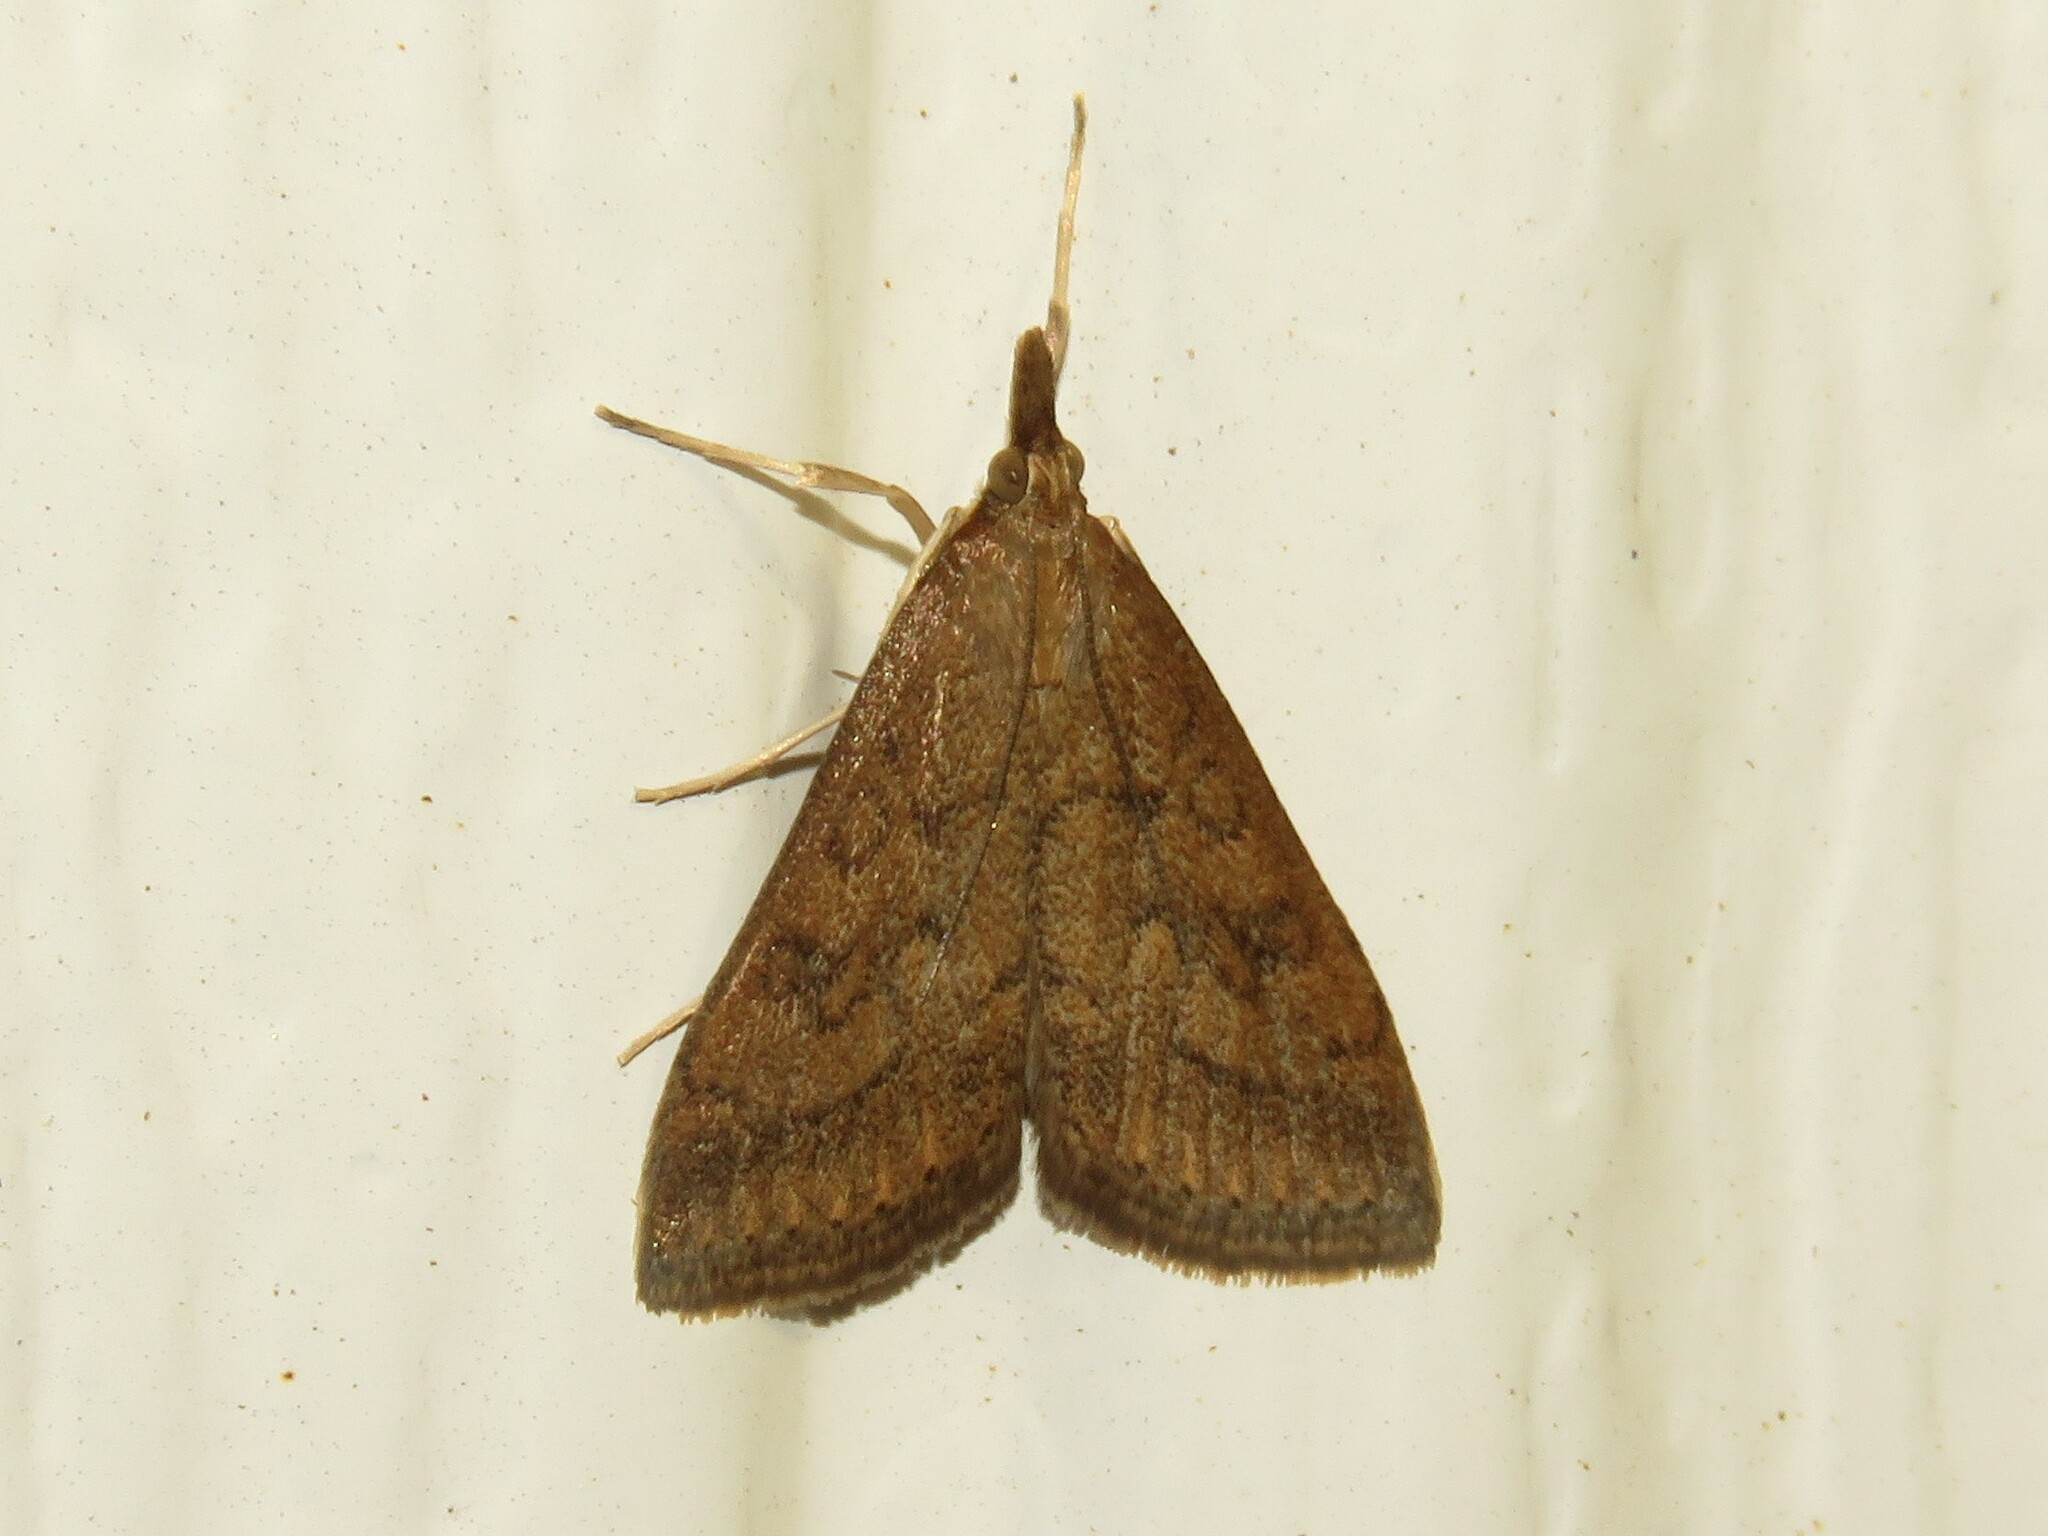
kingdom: Animalia
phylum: Arthropoda
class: Insecta
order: Lepidoptera
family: Crambidae
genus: Udea
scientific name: Udea rubigalis
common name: Celery leaftier moth
